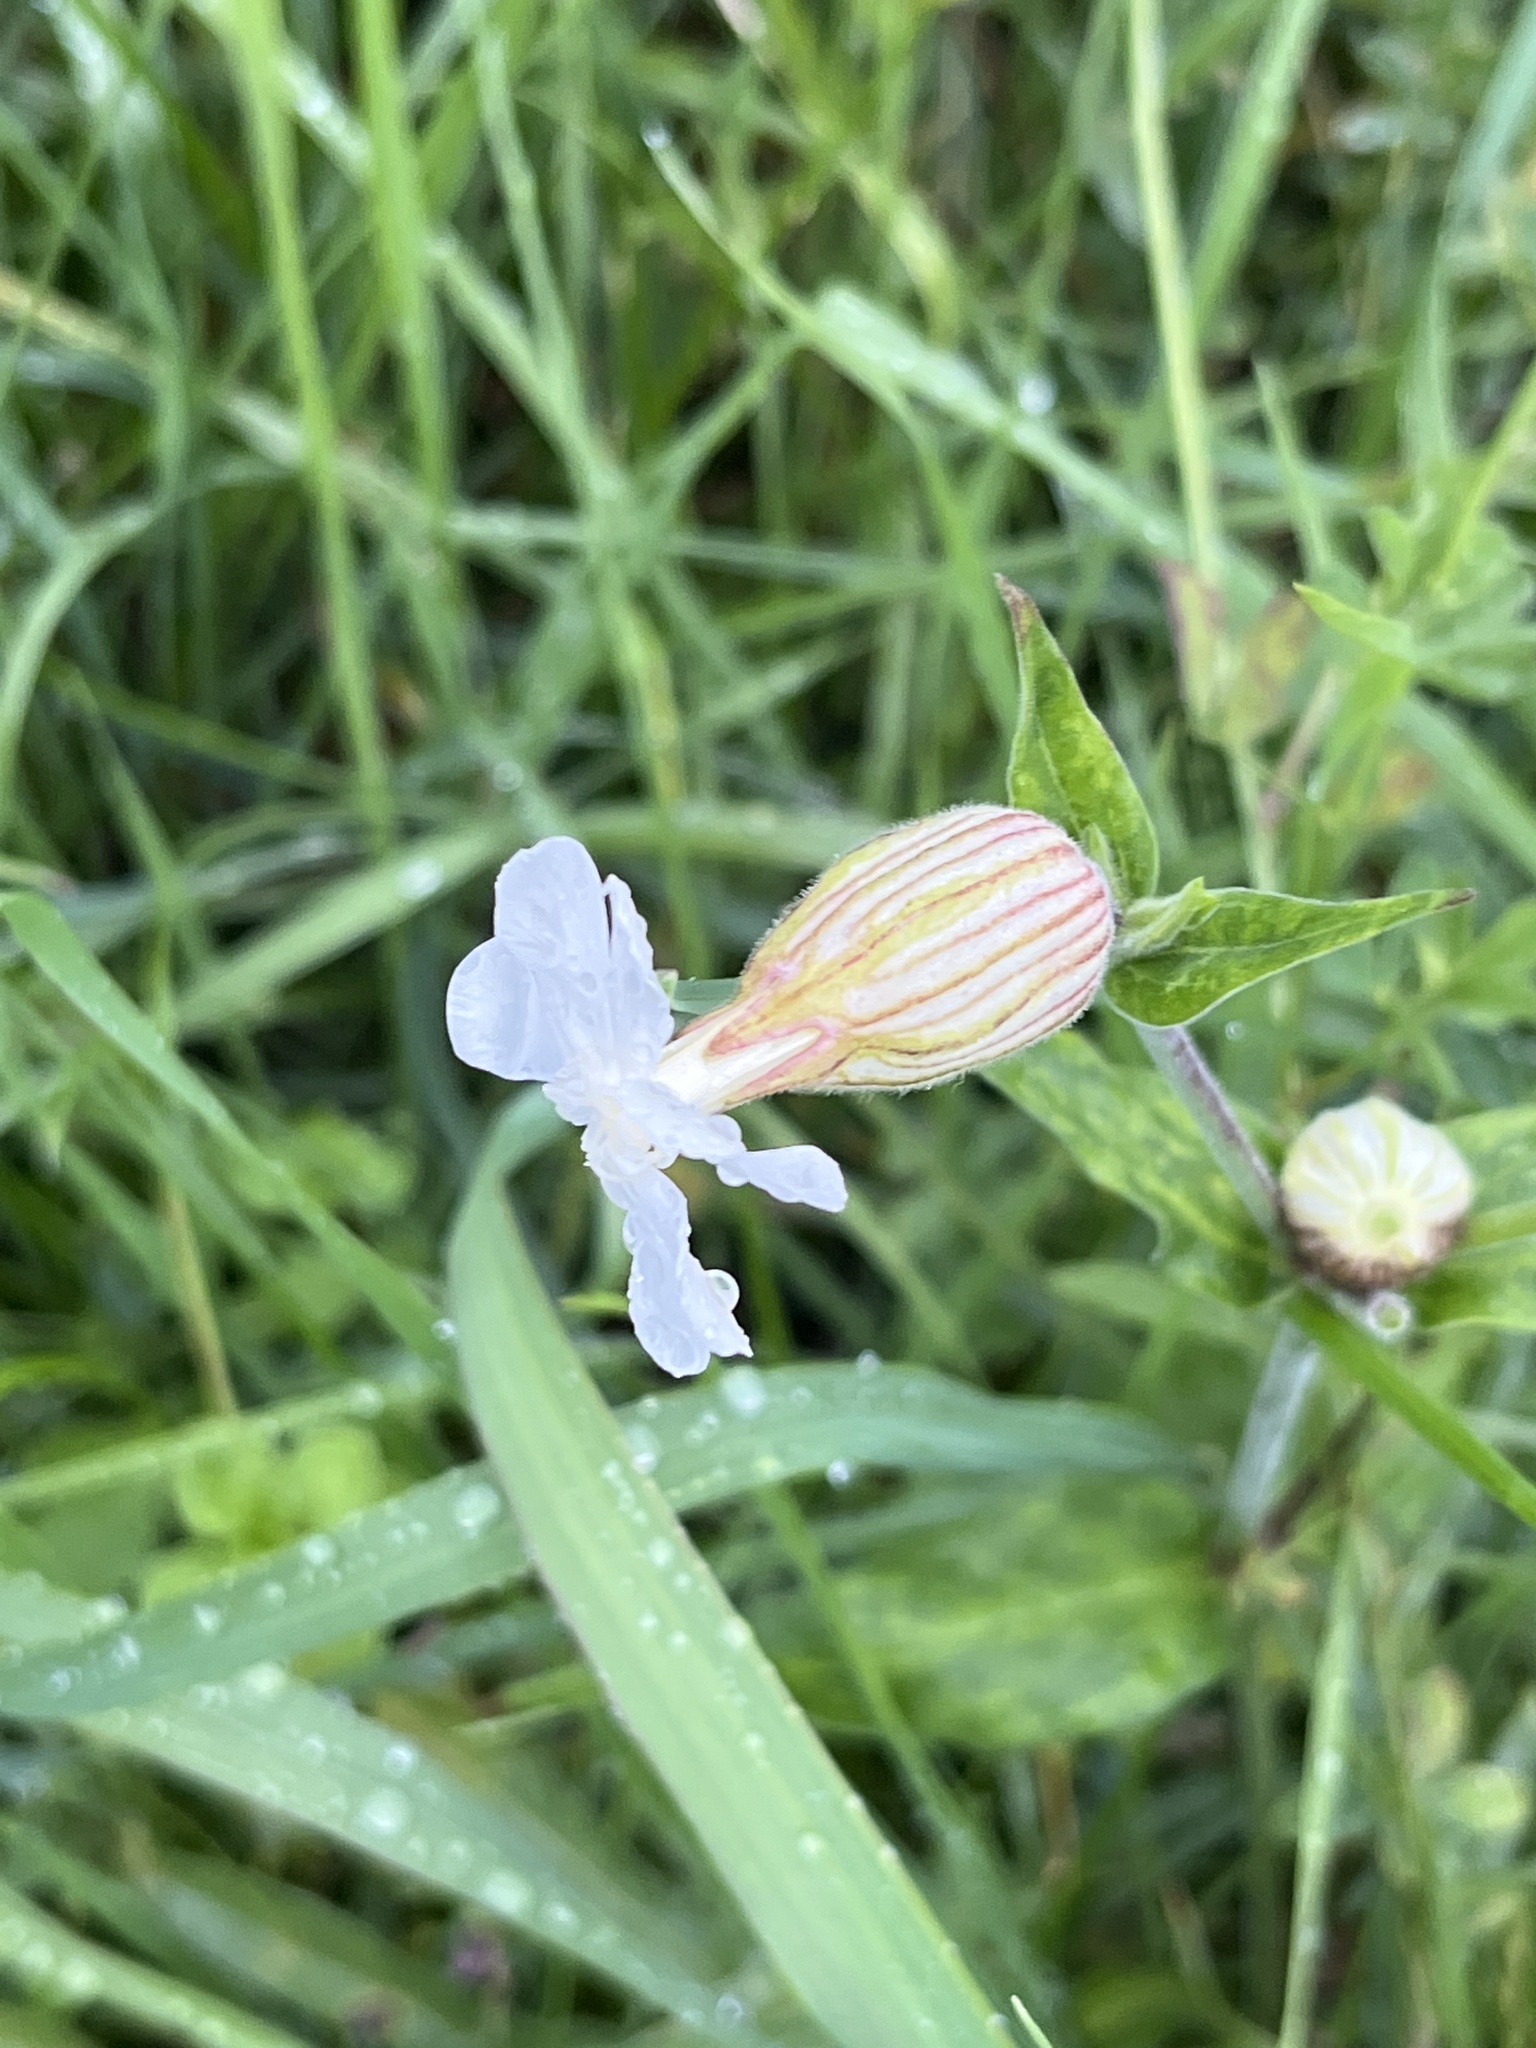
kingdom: Plantae
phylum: Tracheophyta
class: Magnoliopsida
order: Caryophyllales
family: Caryophyllaceae
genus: Silene
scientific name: Silene latifolia
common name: White campion
